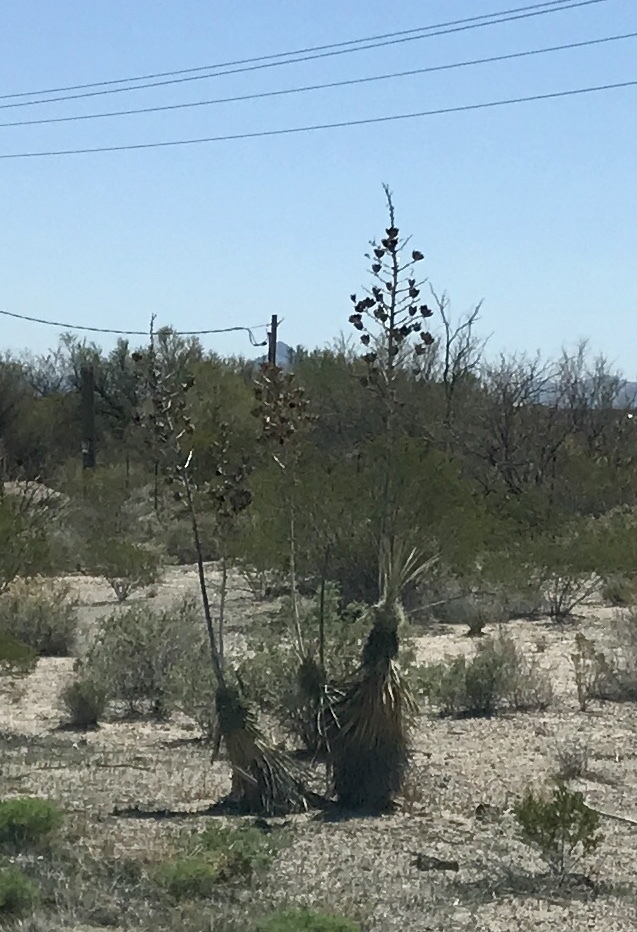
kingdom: Plantae
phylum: Tracheophyta
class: Liliopsida
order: Asparagales
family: Asparagaceae
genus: Yucca
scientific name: Yucca elata
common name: Palmella
